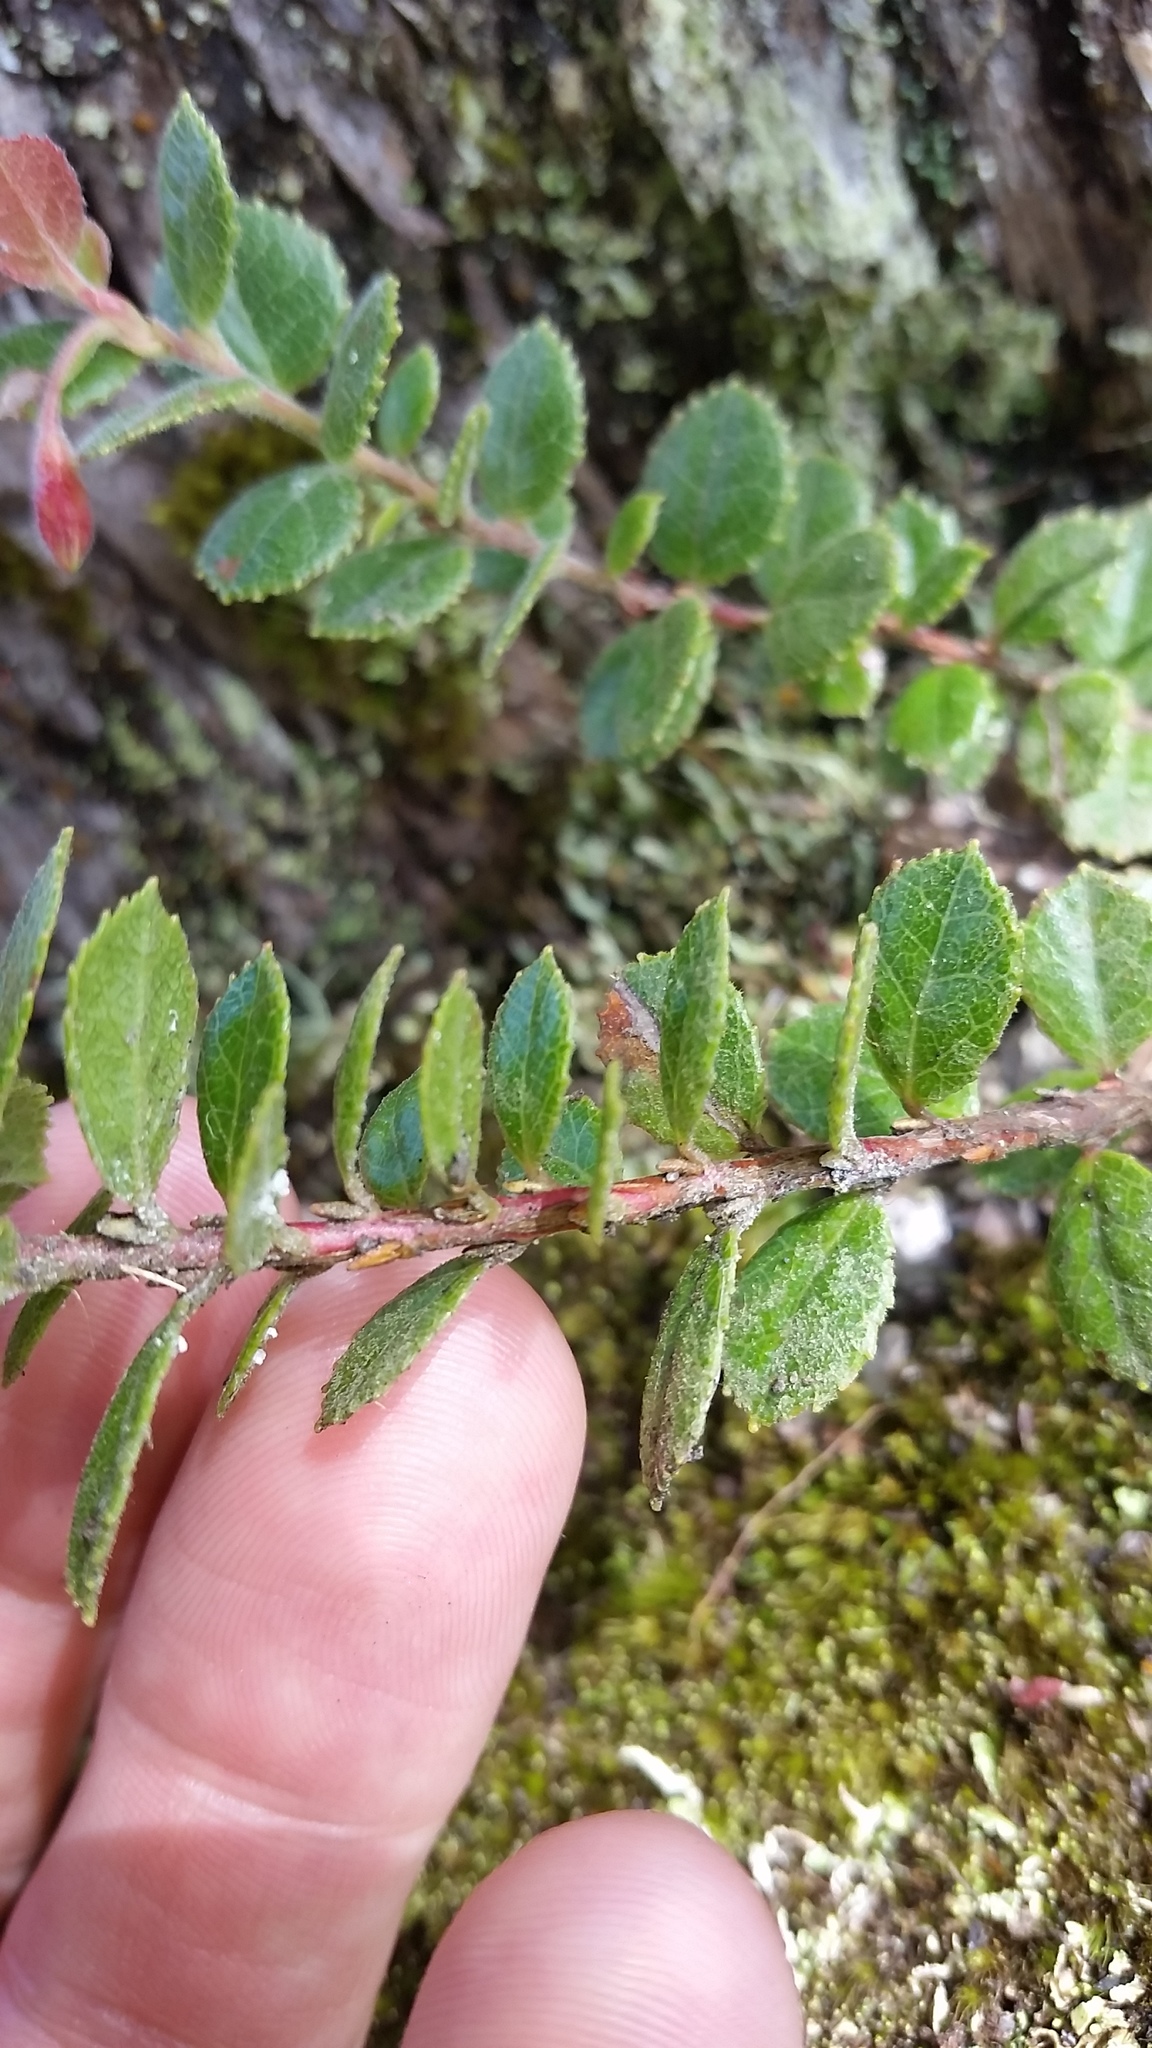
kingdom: Plantae
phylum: Tracheophyta
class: Magnoliopsida
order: Ericales
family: Ericaceae
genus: Vaccinium
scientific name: Vaccinium reticulatum
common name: Ohelo
